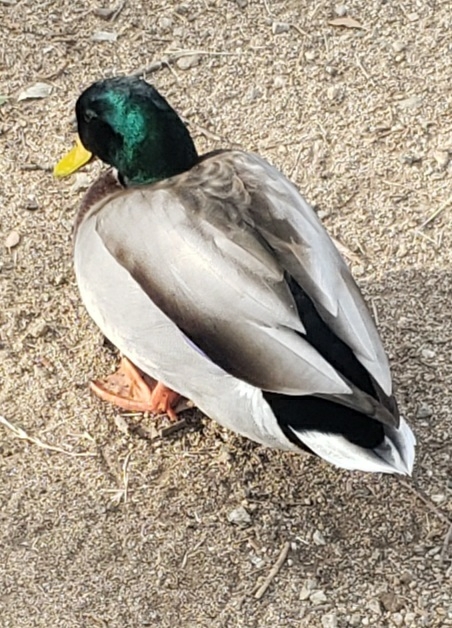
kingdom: Animalia
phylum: Chordata
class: Aves
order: Anseriformes
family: Anatidae
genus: Anas
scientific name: Anas platyrhynchos
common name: Mallard
